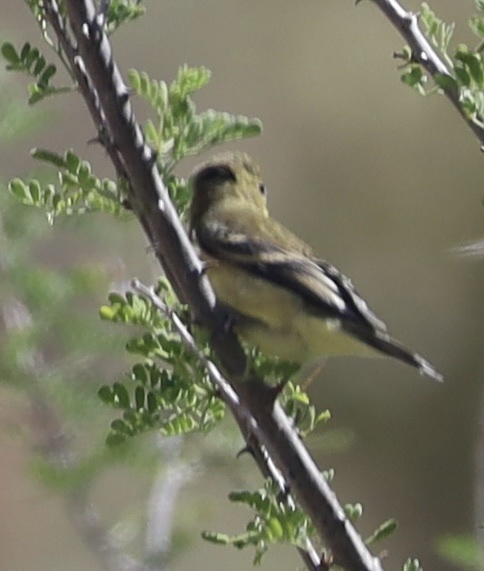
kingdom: Animalia
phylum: Chordata
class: Aves
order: Passeriformes
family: Fringillidae
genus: Spinus
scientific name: Spinus psaltria
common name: Lesser goldfinch
